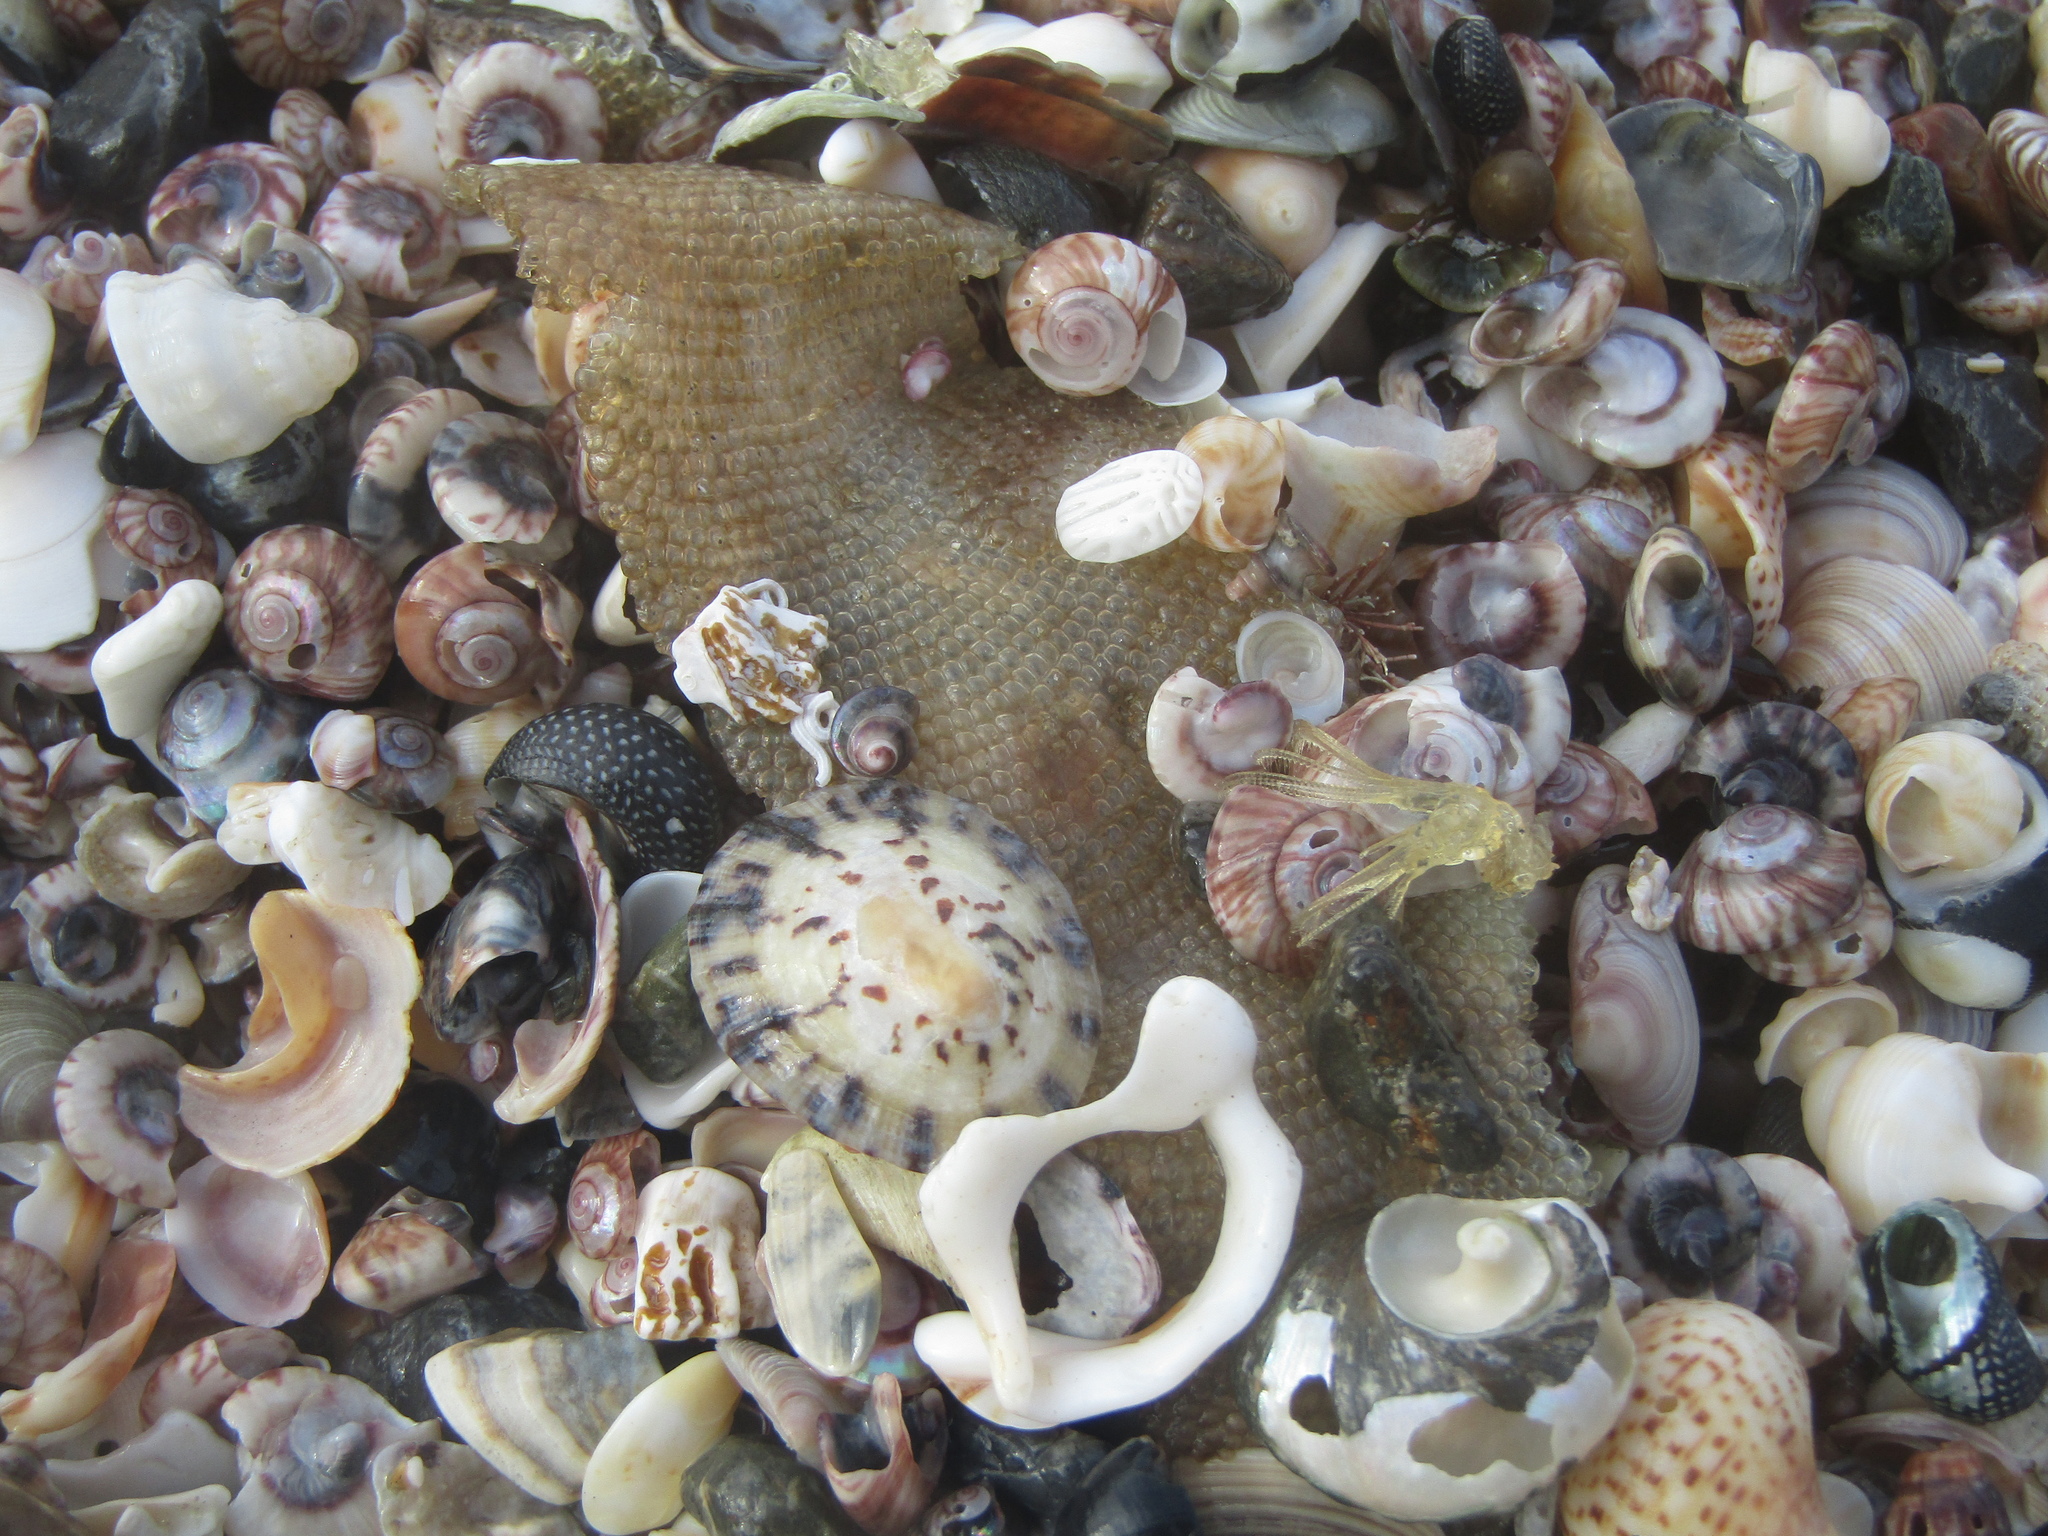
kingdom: Animalia
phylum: Mollusca
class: Gastropoda
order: Littorinimorpha
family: Tonnidae
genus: Tonna
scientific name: Tonna tankervillii
